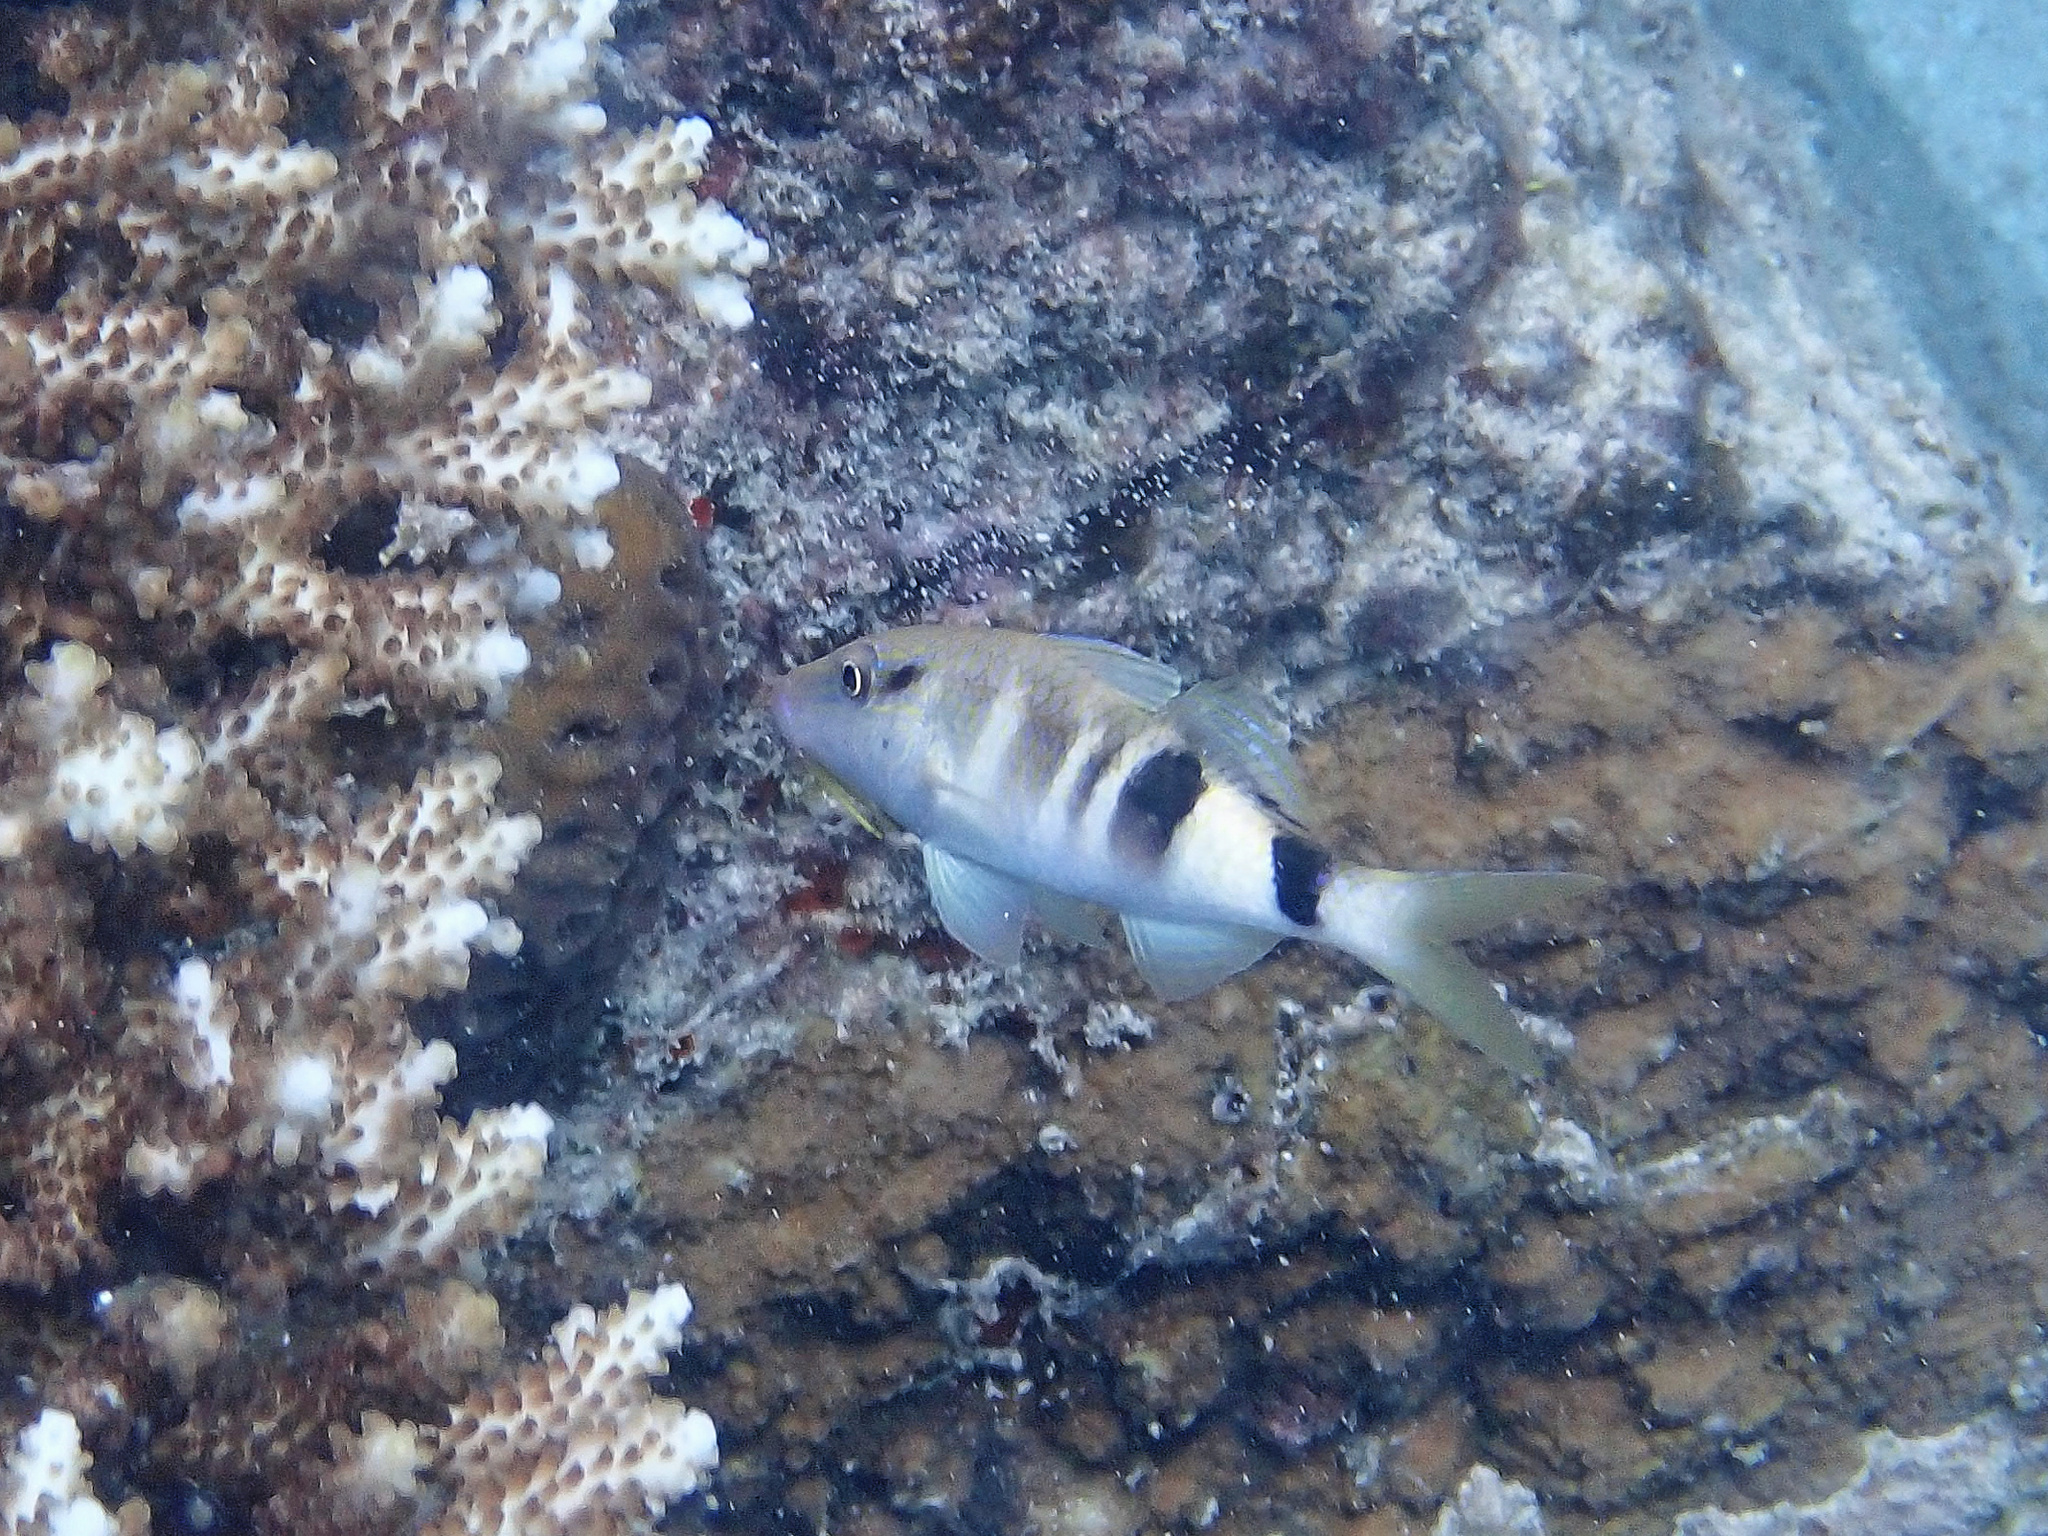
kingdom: Animalia
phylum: Chordata
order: Perciformes
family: Mullidae
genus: Parupeneus
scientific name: Parupeneus multifasciatus
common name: Manybar goatfish
